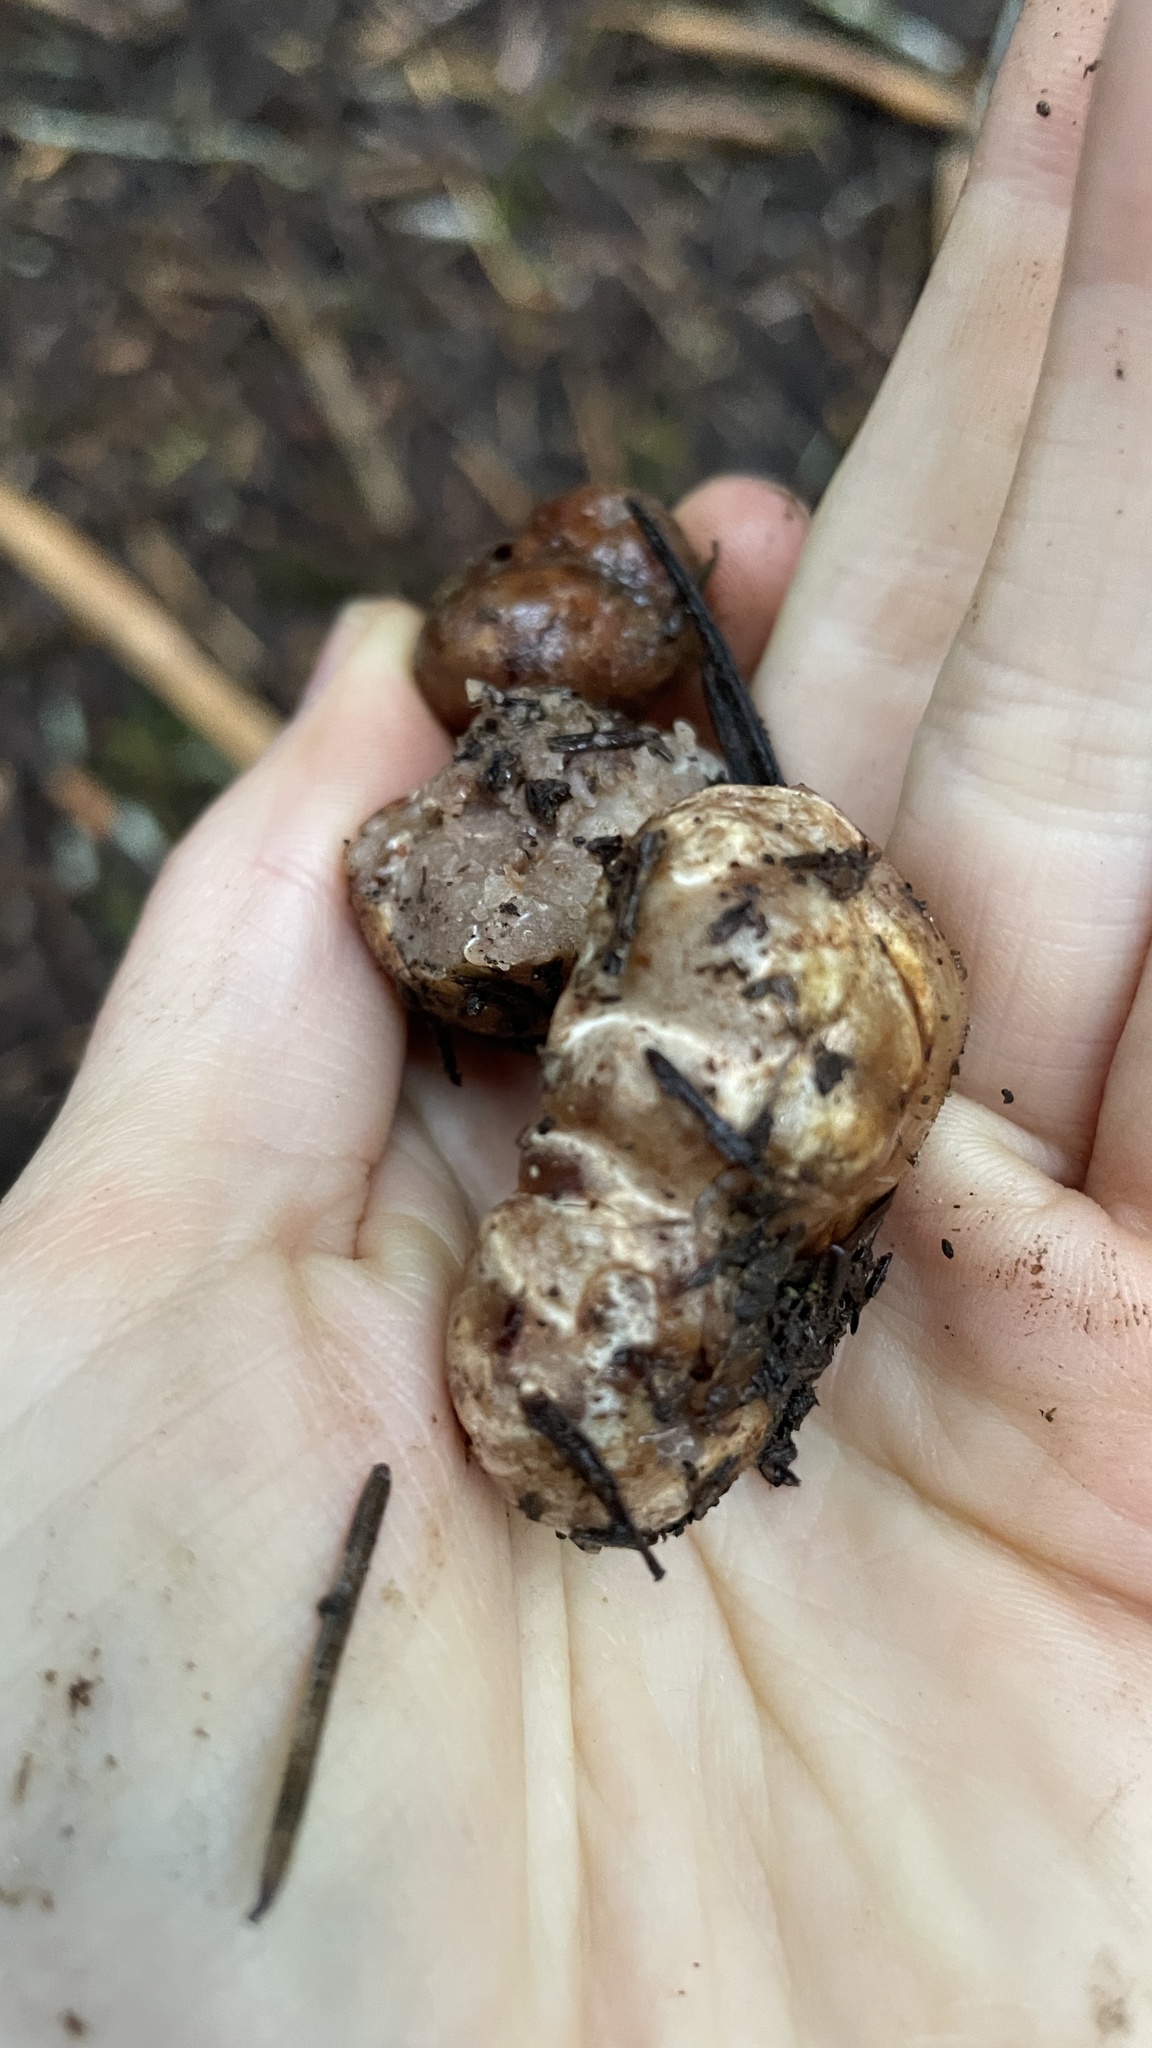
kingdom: Fungi
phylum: Ascomycota
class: Pezizomycetes
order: Pezizales
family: Tuberaceae
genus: Tuber
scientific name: Tuber gibbosum
